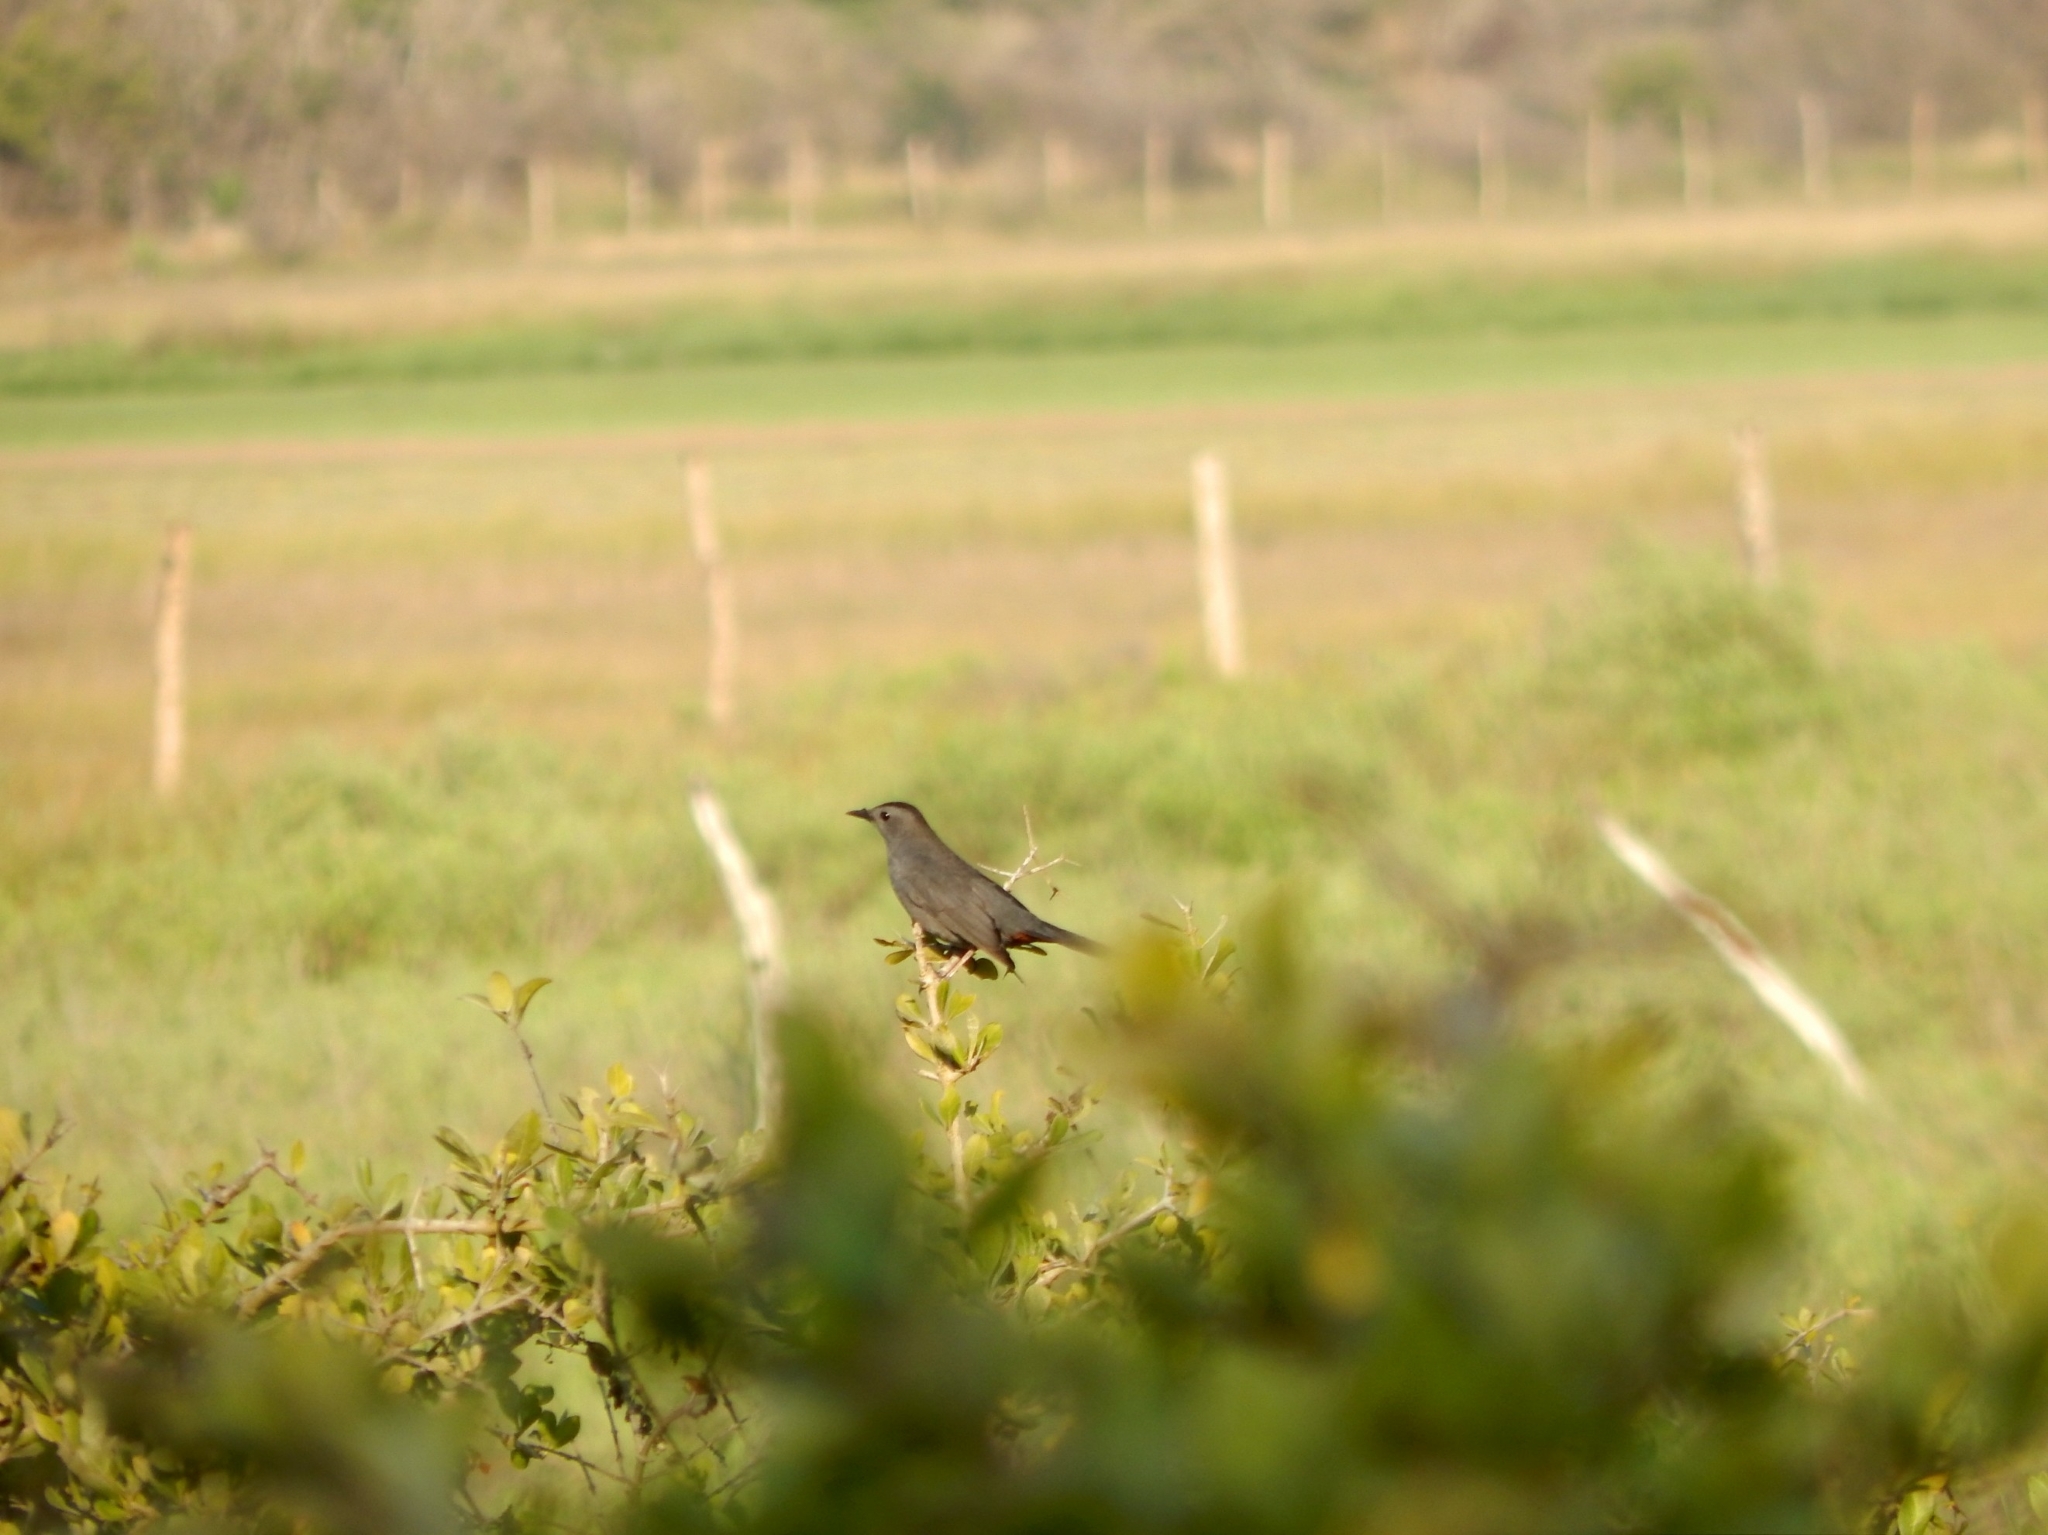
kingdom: Animalia
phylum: Chordata
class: Aves
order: Passeriformes
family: Mimidae
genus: Dumetella
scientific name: Dumetella carolinensis
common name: Gray catbird
